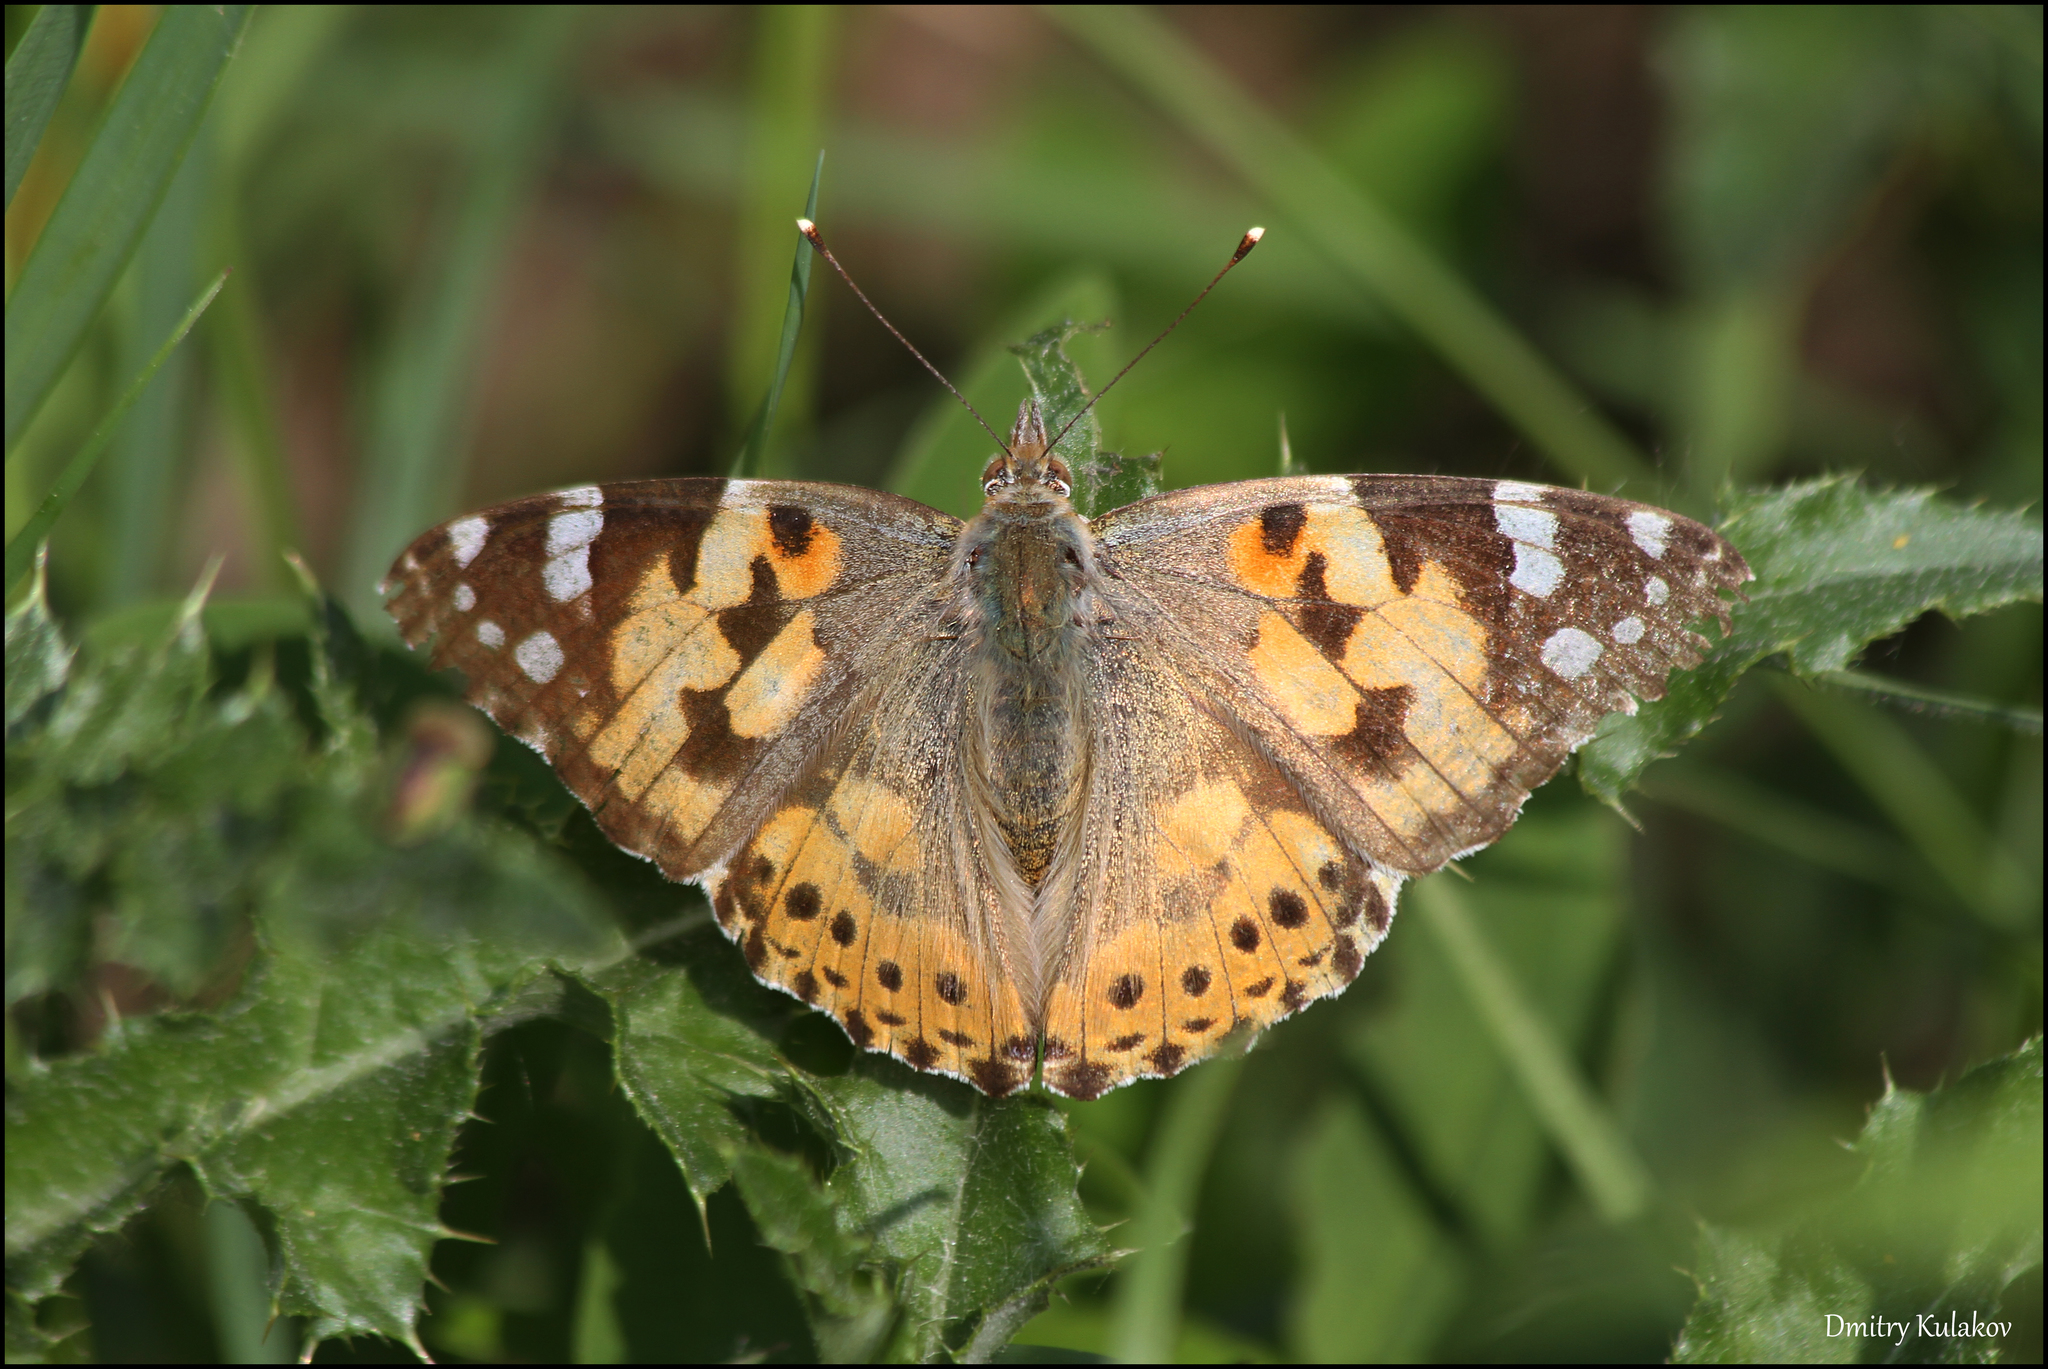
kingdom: Animalia
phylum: Arthropoda
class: Insecta
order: Lepidoptera
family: Nymphalidae
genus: Vanessa
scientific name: Vanessa cardui
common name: Painted lady
